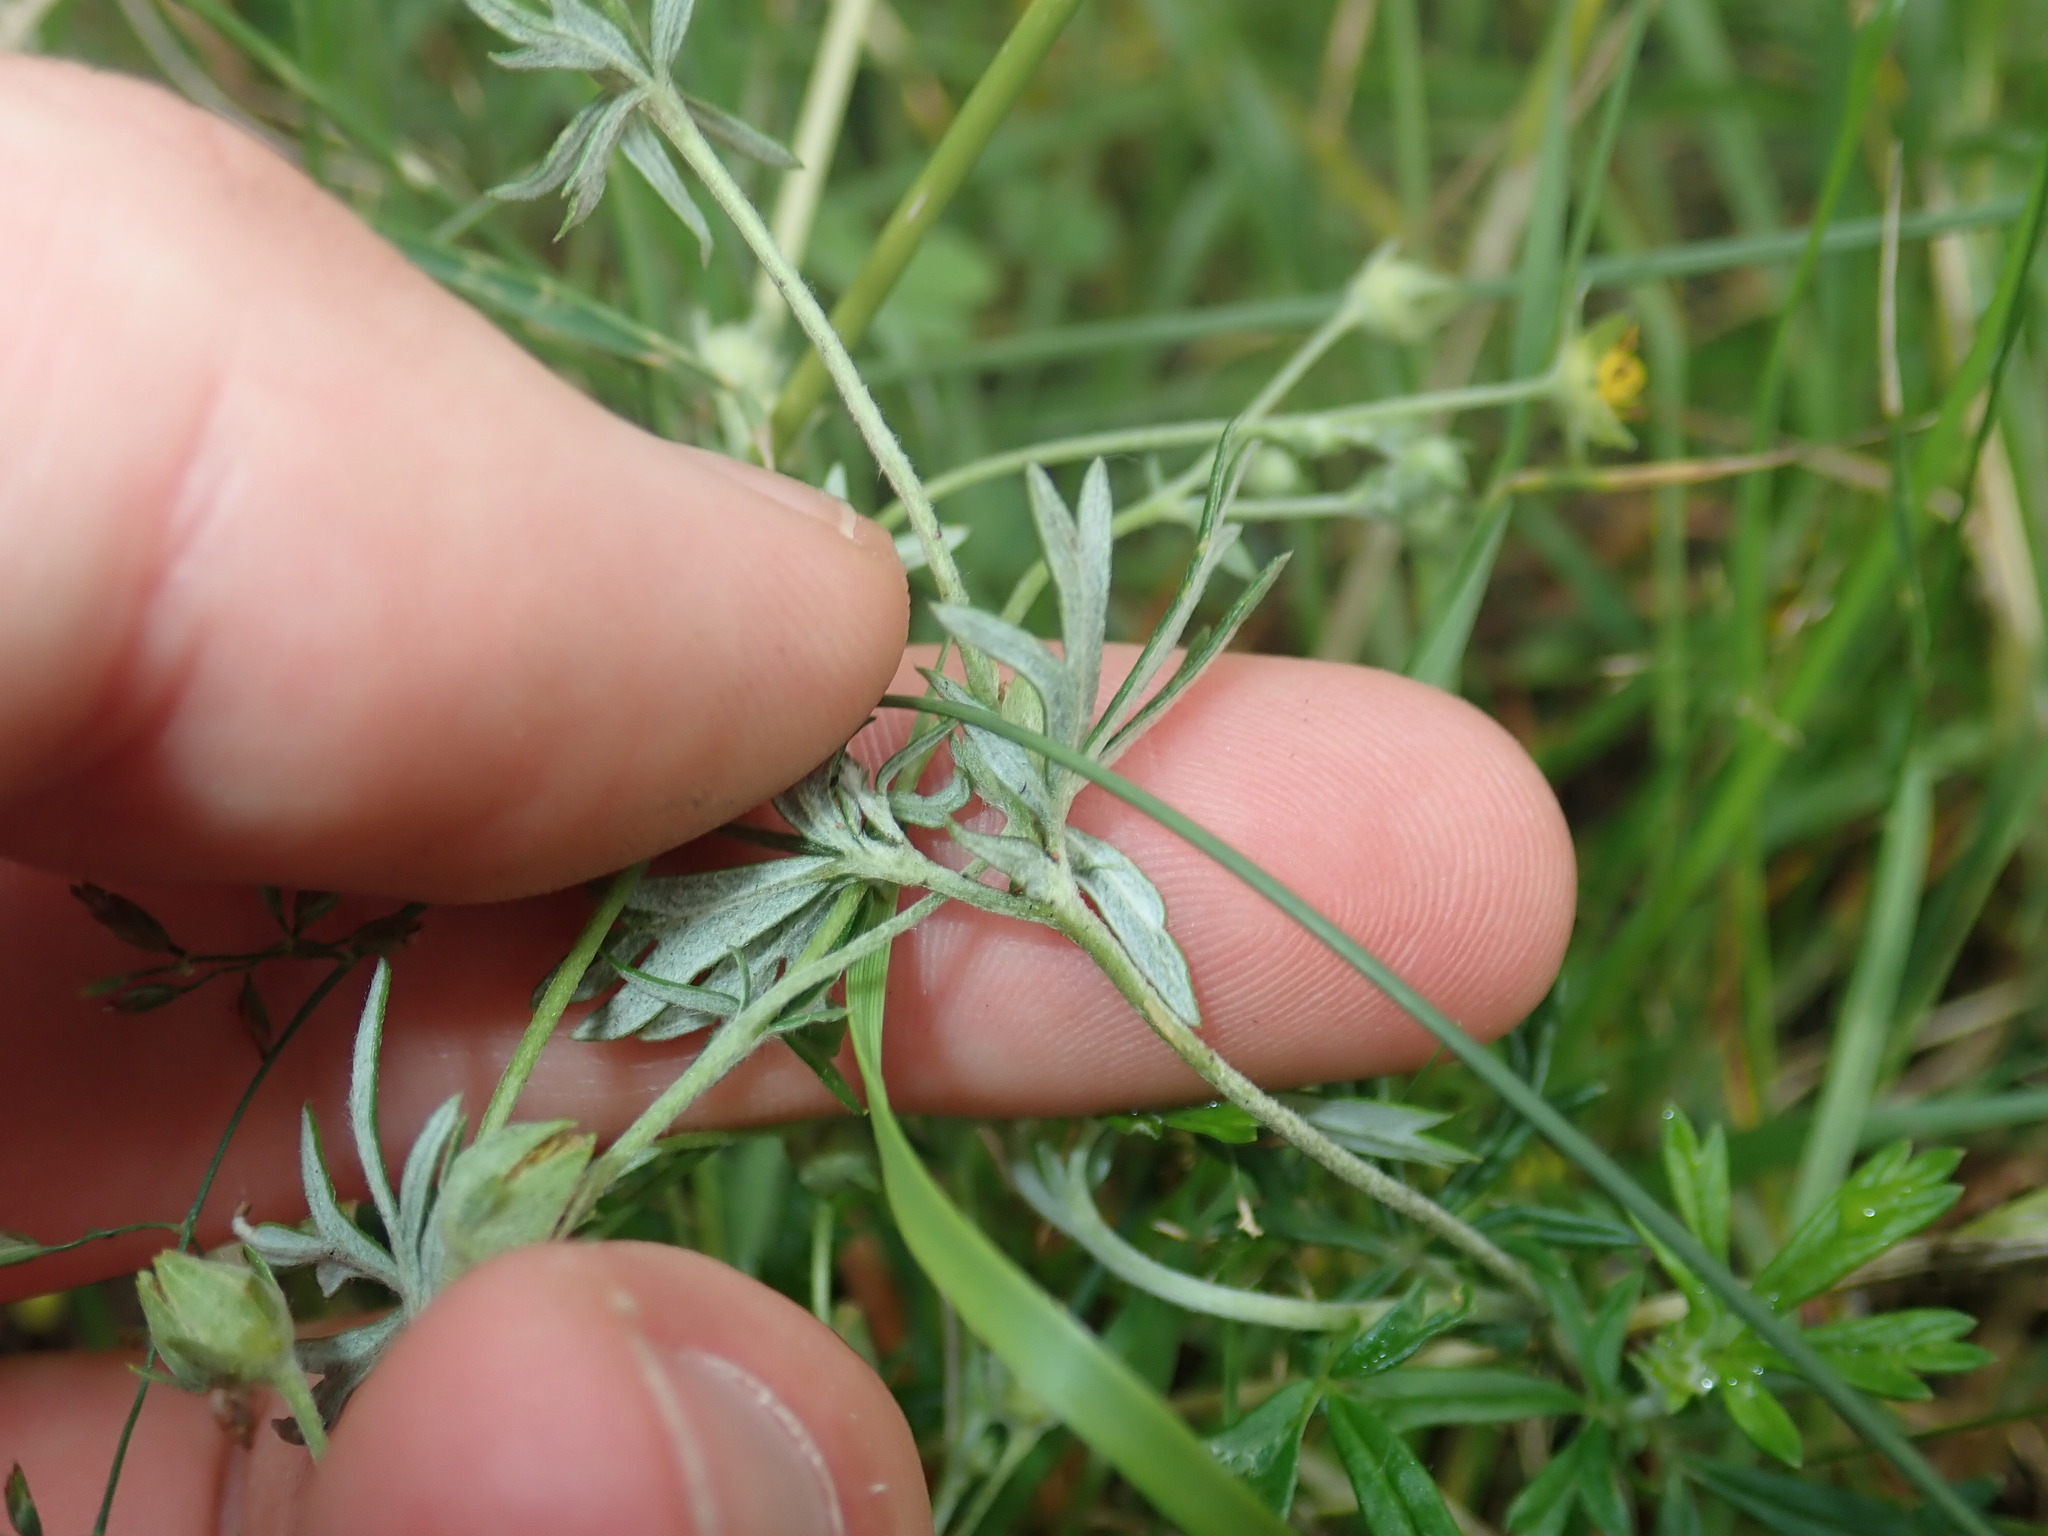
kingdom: Plantae
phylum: Tracheophyta
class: Magnoliopsida
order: Rosales
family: Rosaceae
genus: Potentilla
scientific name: Potentilla argentea
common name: Hoary cinquefoil
